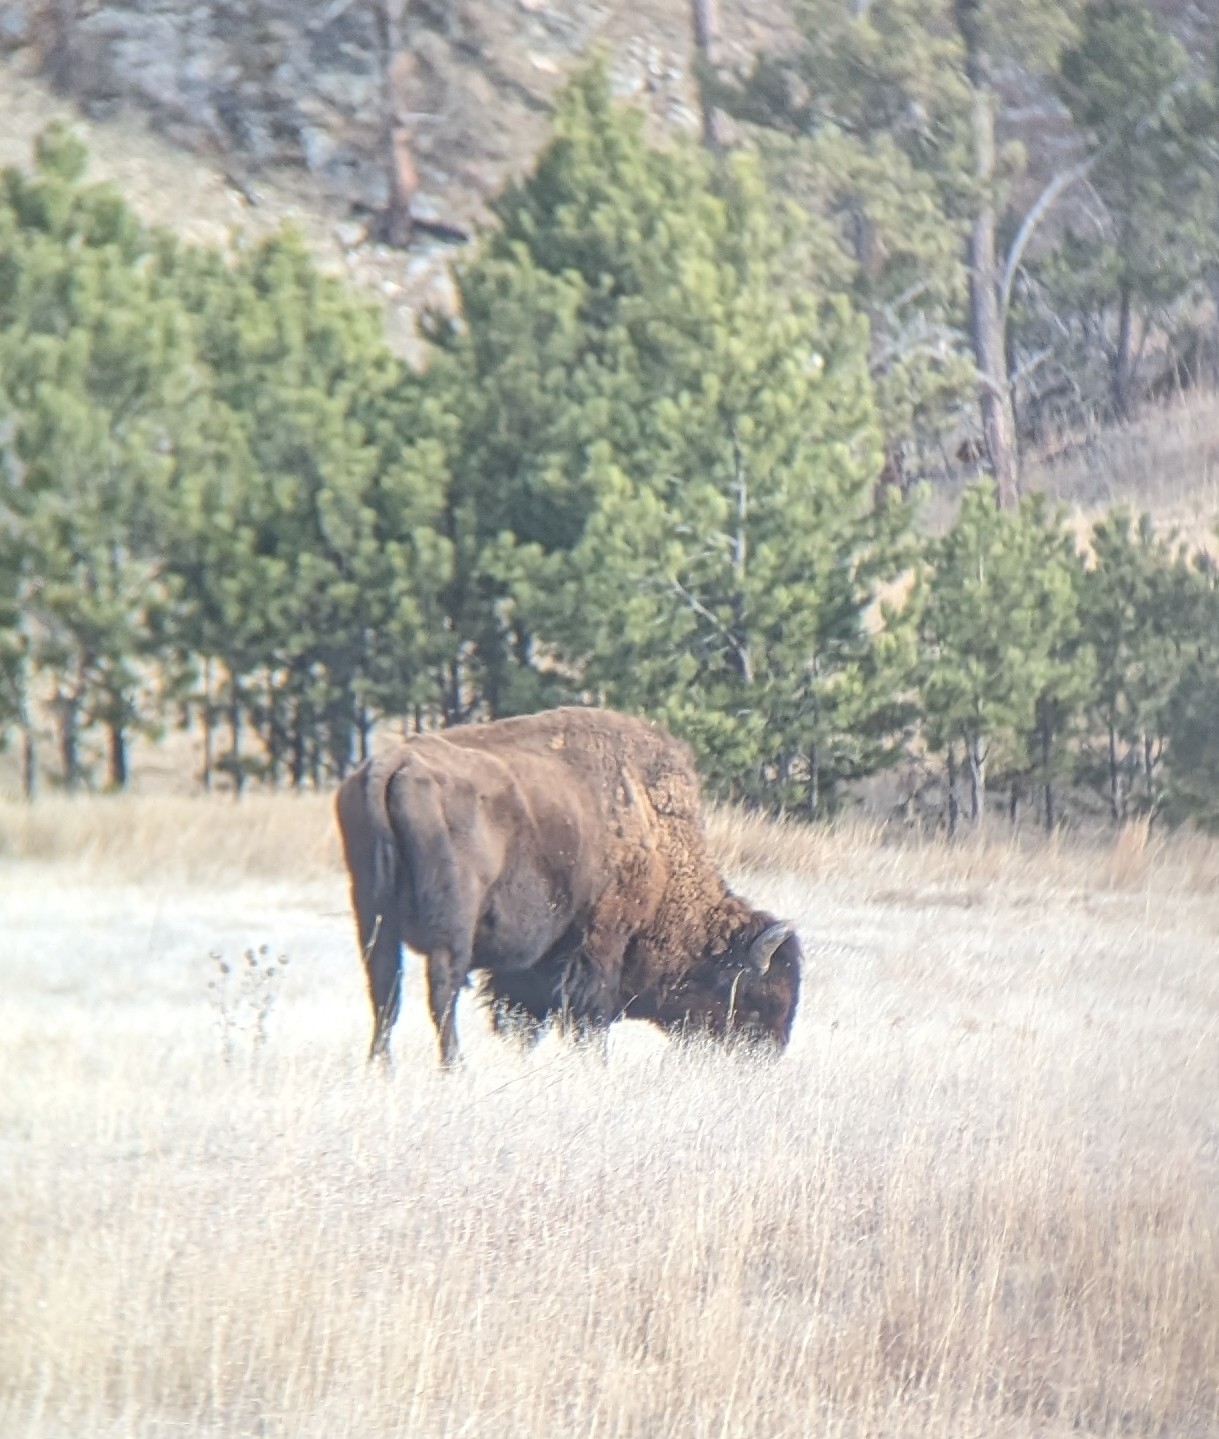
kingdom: Animalia
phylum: Chordata
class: Mammalia
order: Artiodactyla
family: Bovidae
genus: Bison
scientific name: Bison bison
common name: American bison
